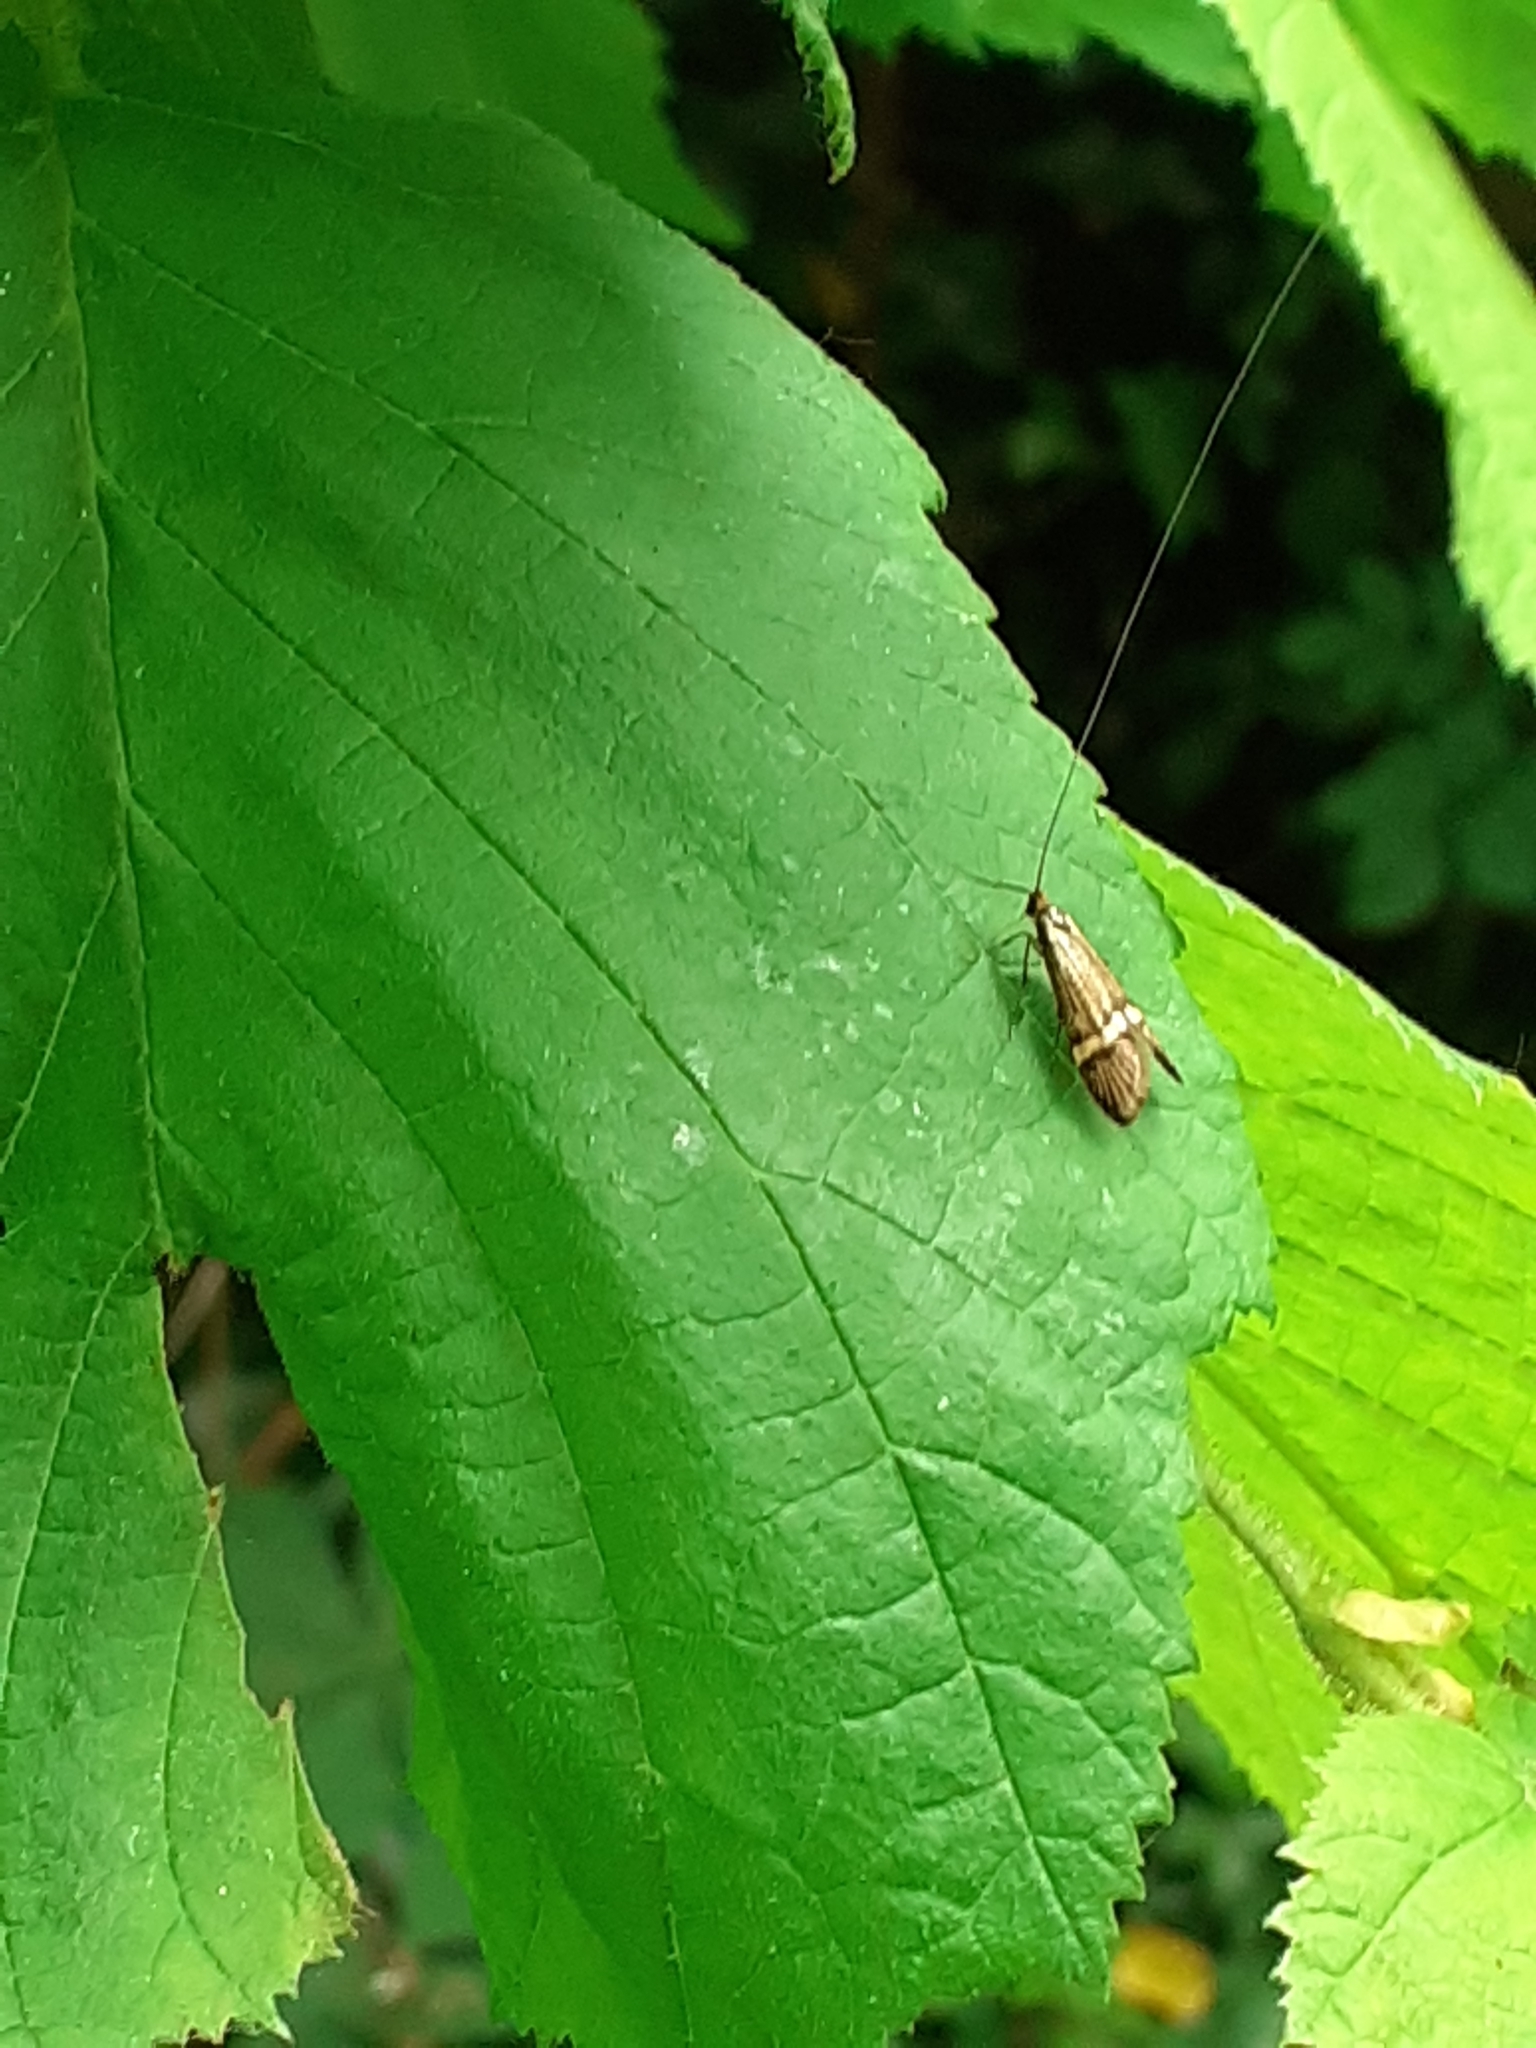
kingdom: Animalia
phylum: Arthropoda
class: Insecta
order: Lepidoptera
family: Adelidae
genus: Nemophora
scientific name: Nemophora degeerella
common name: Yellow-barred long-horn
